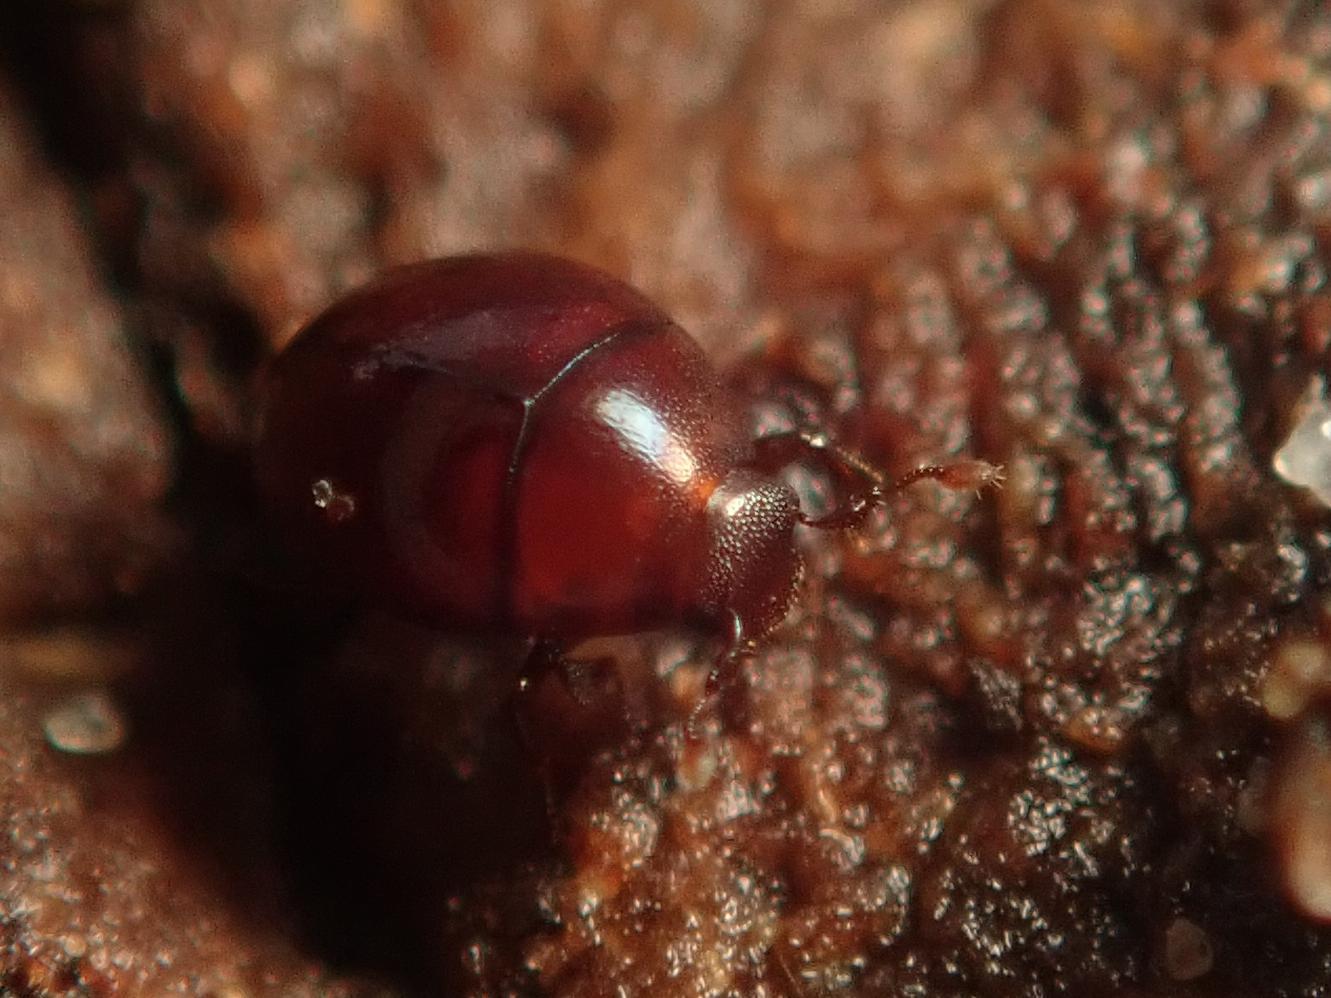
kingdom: Animalia
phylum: Arthropoda
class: Insecta
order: Coleoptera
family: Histeridae
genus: Abraeus
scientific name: Abraeus perpusillus
